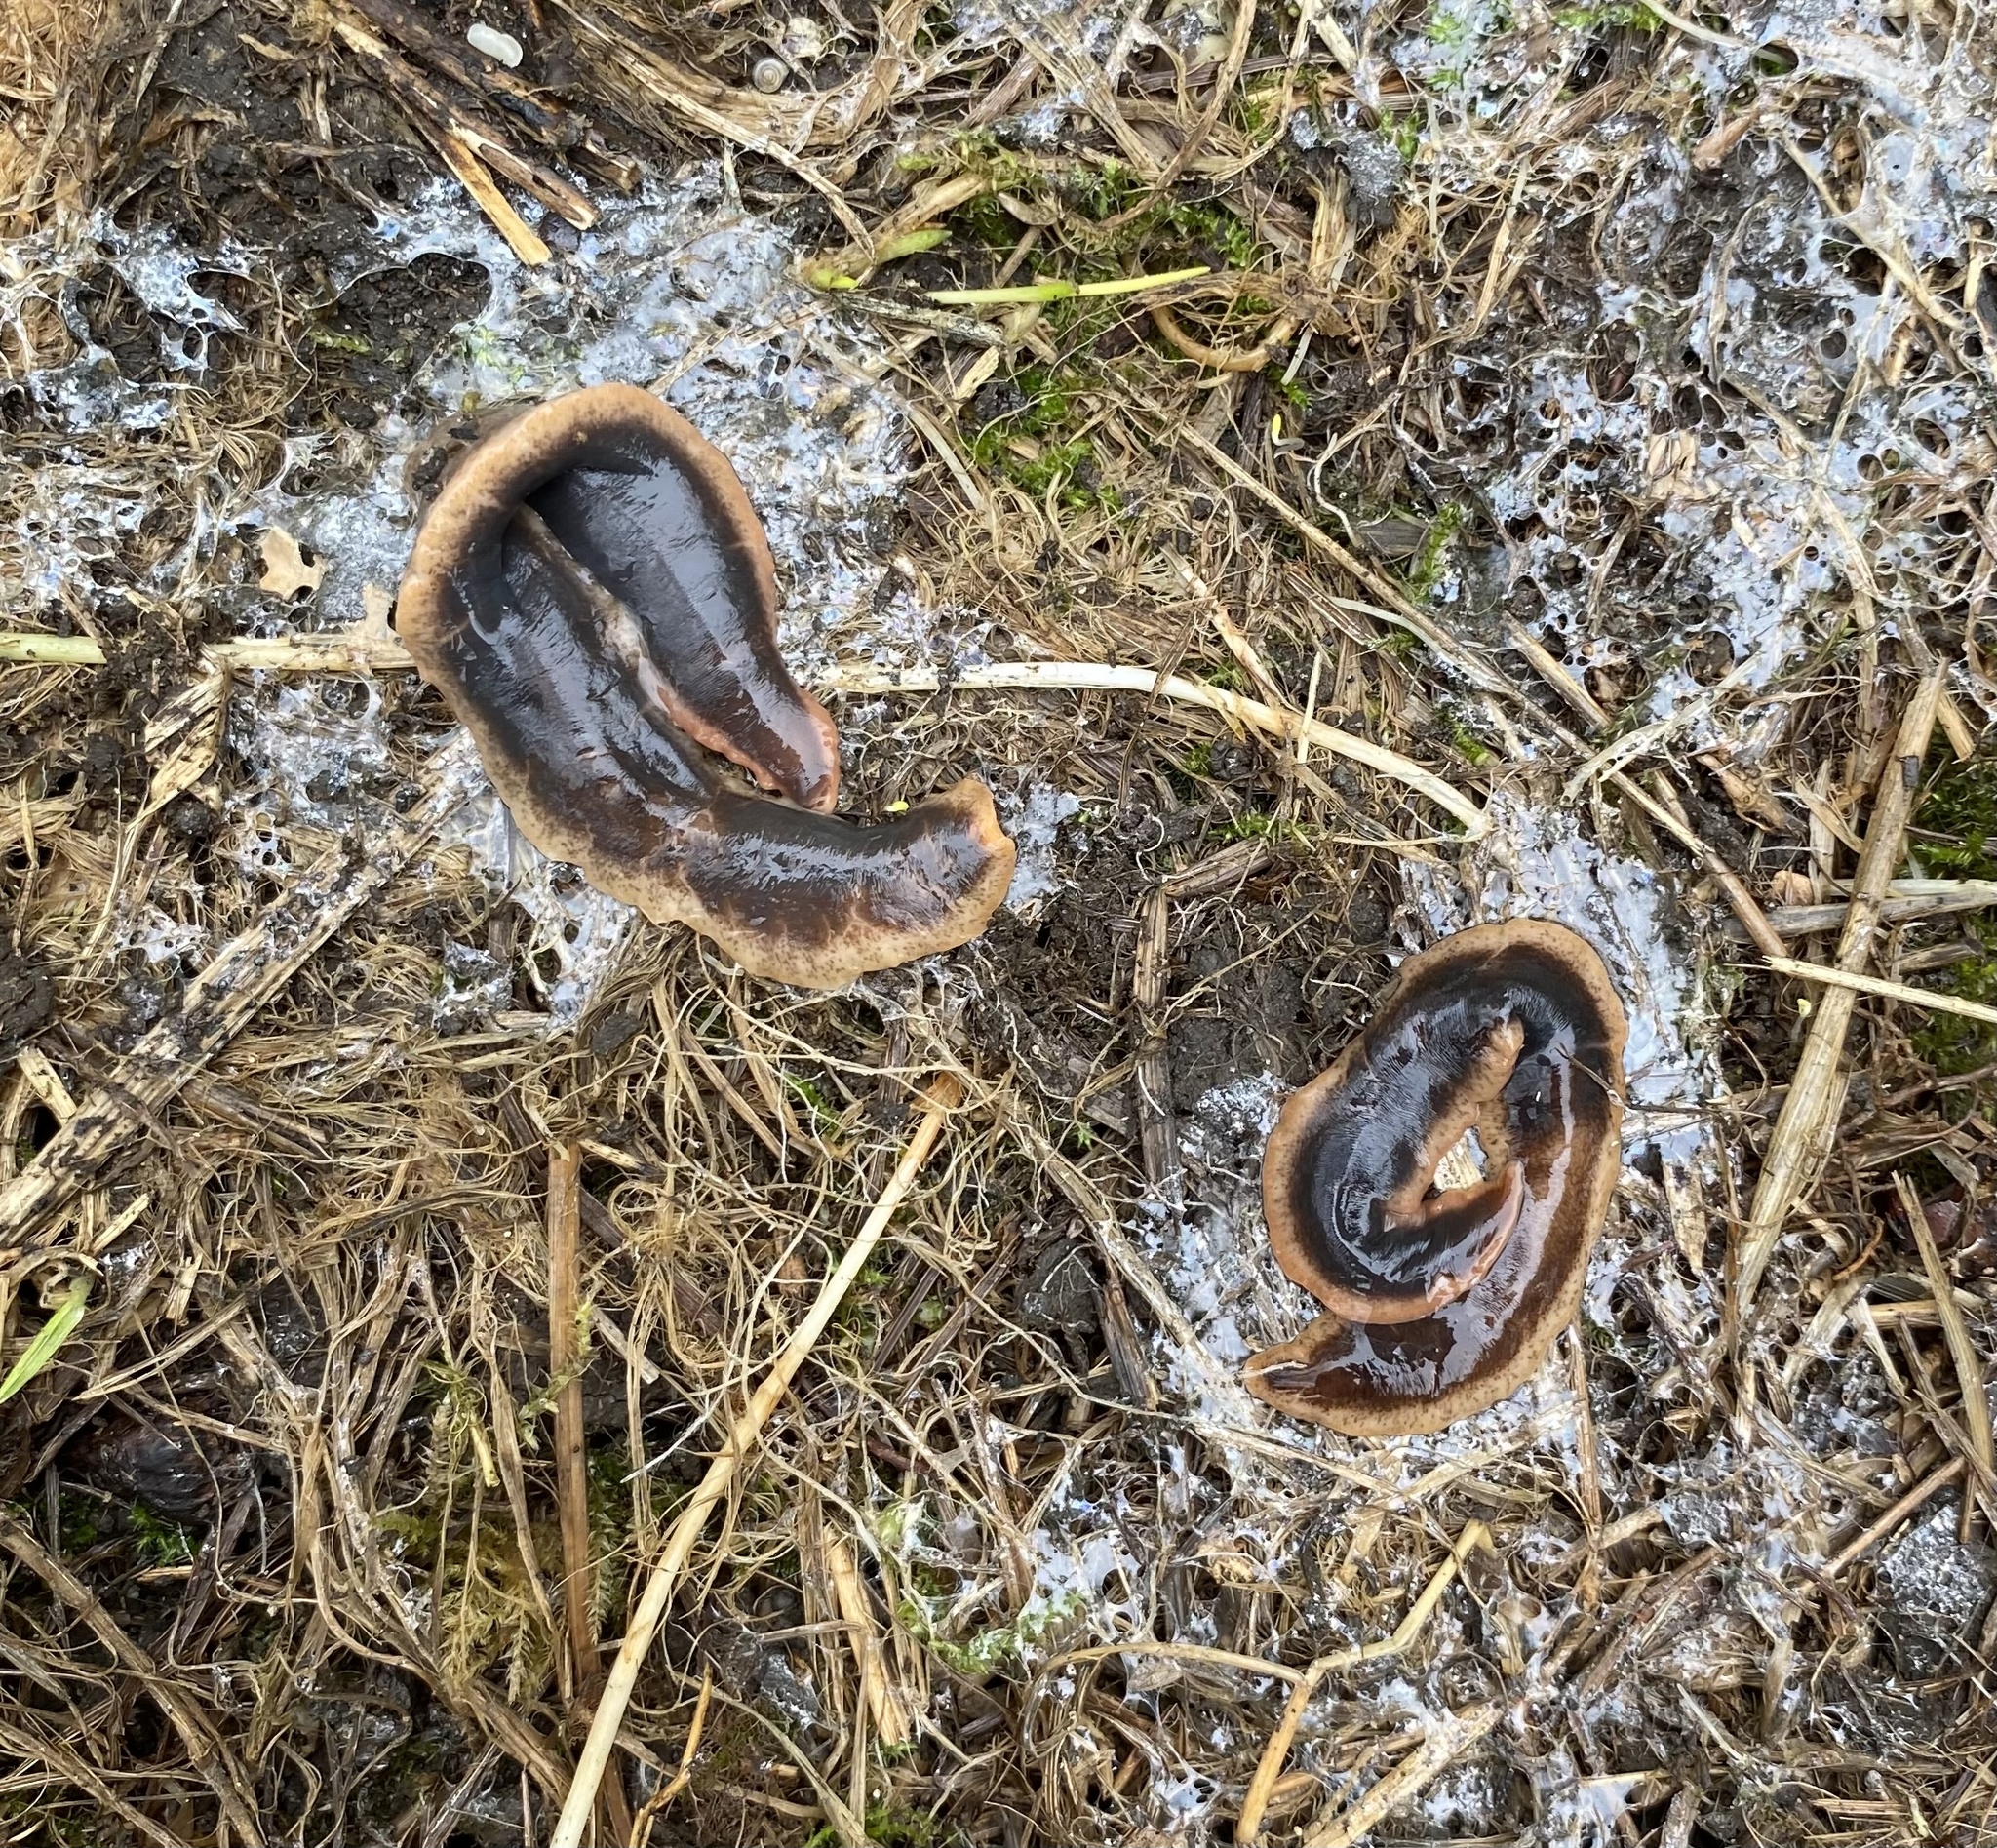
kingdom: Animalia
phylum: Platyhelminthes
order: Tricladida
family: Geoplanidae
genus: Arthurdendyus
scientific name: Arthurdendyus triangulatus
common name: New zealand flatworm
